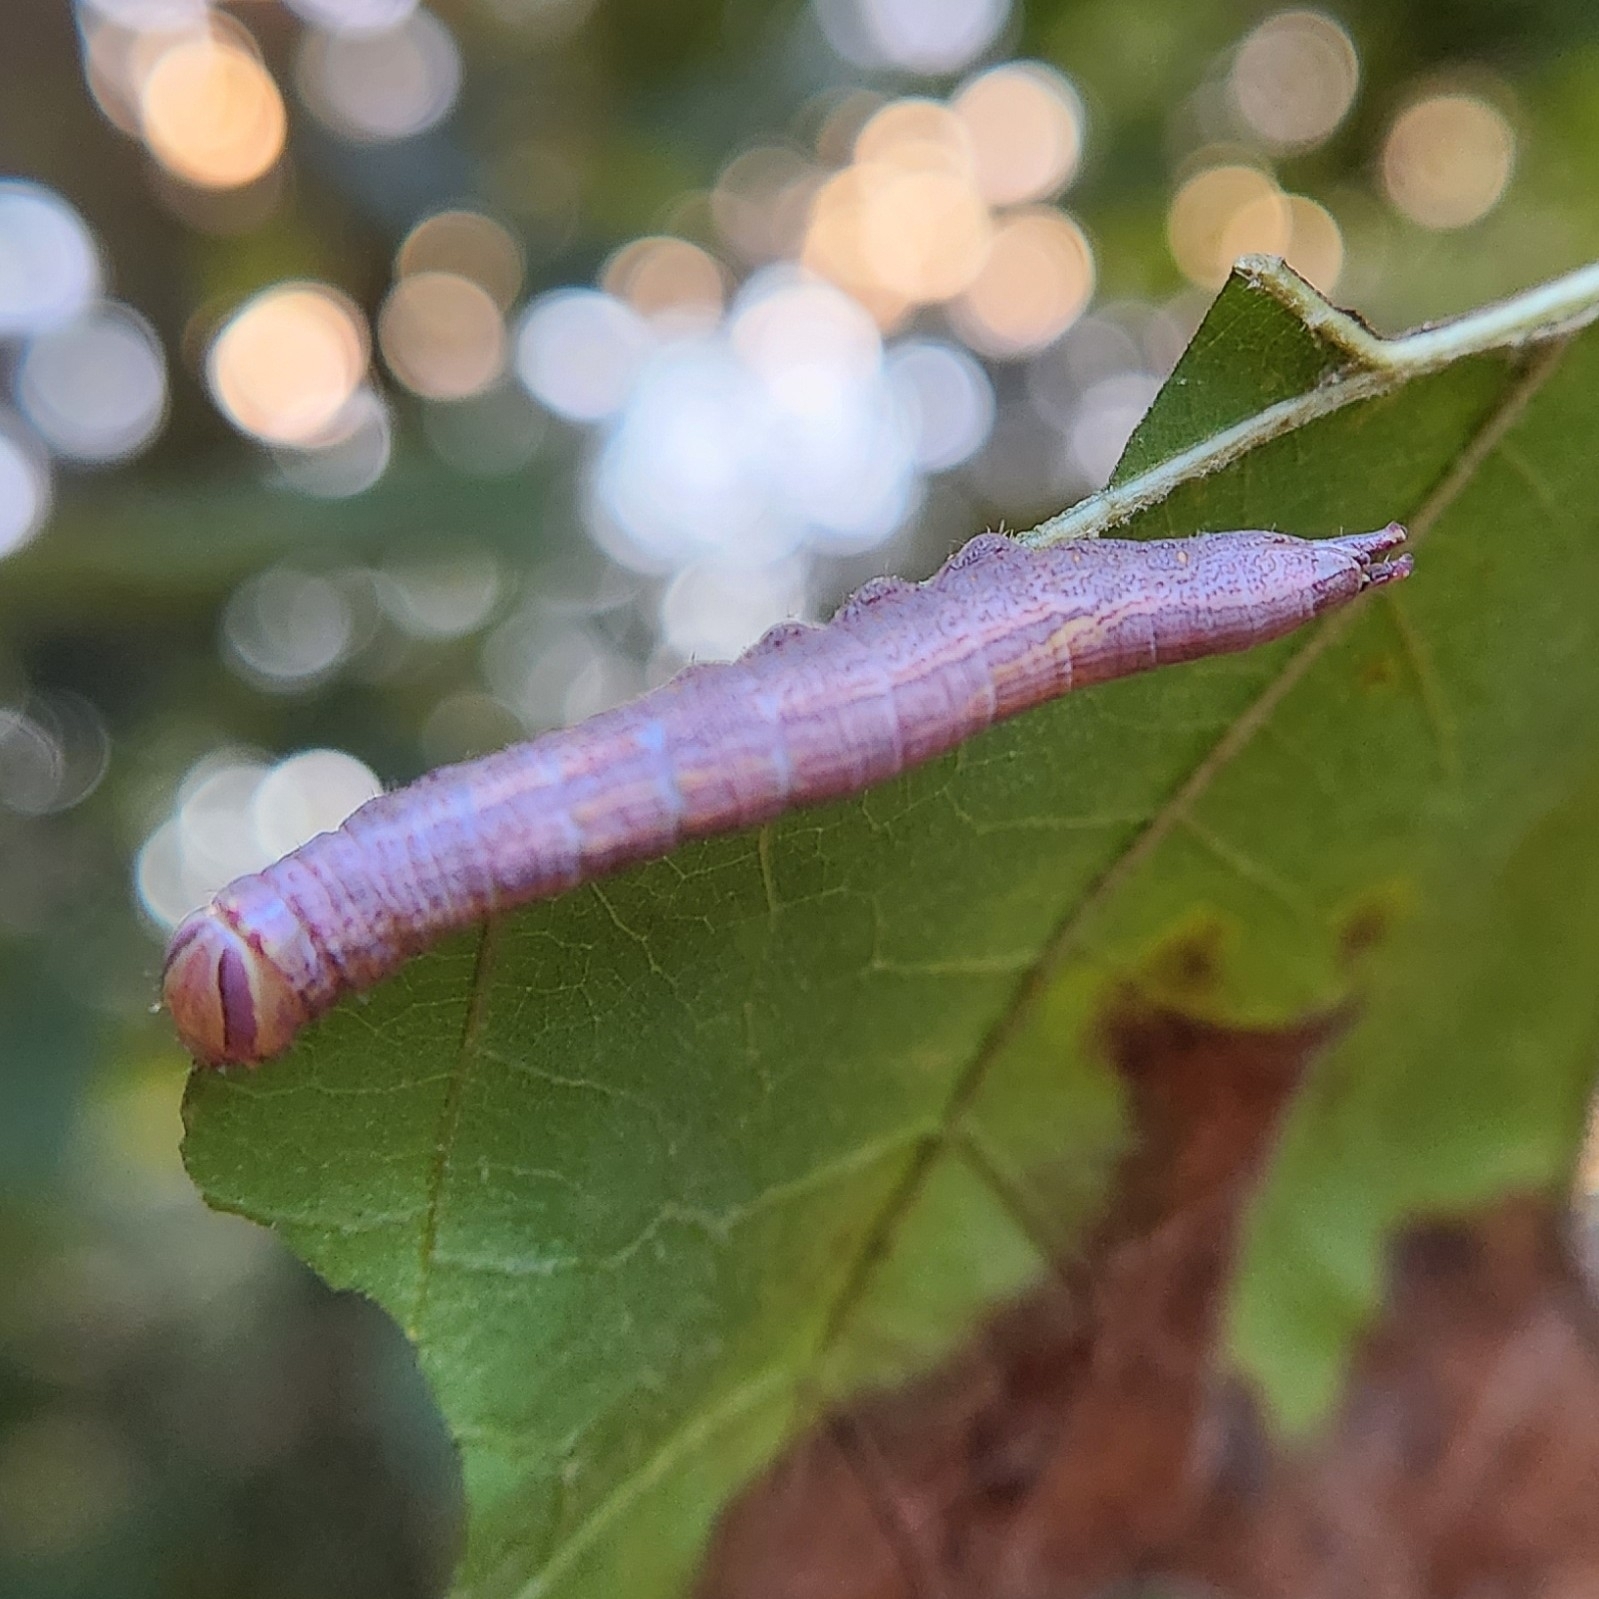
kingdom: Animalia
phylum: Arthropoda
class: Insecta
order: Lepidoptera
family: Notodontidae
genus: Disphragis
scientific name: Disphragis Cecrita guttivitta
